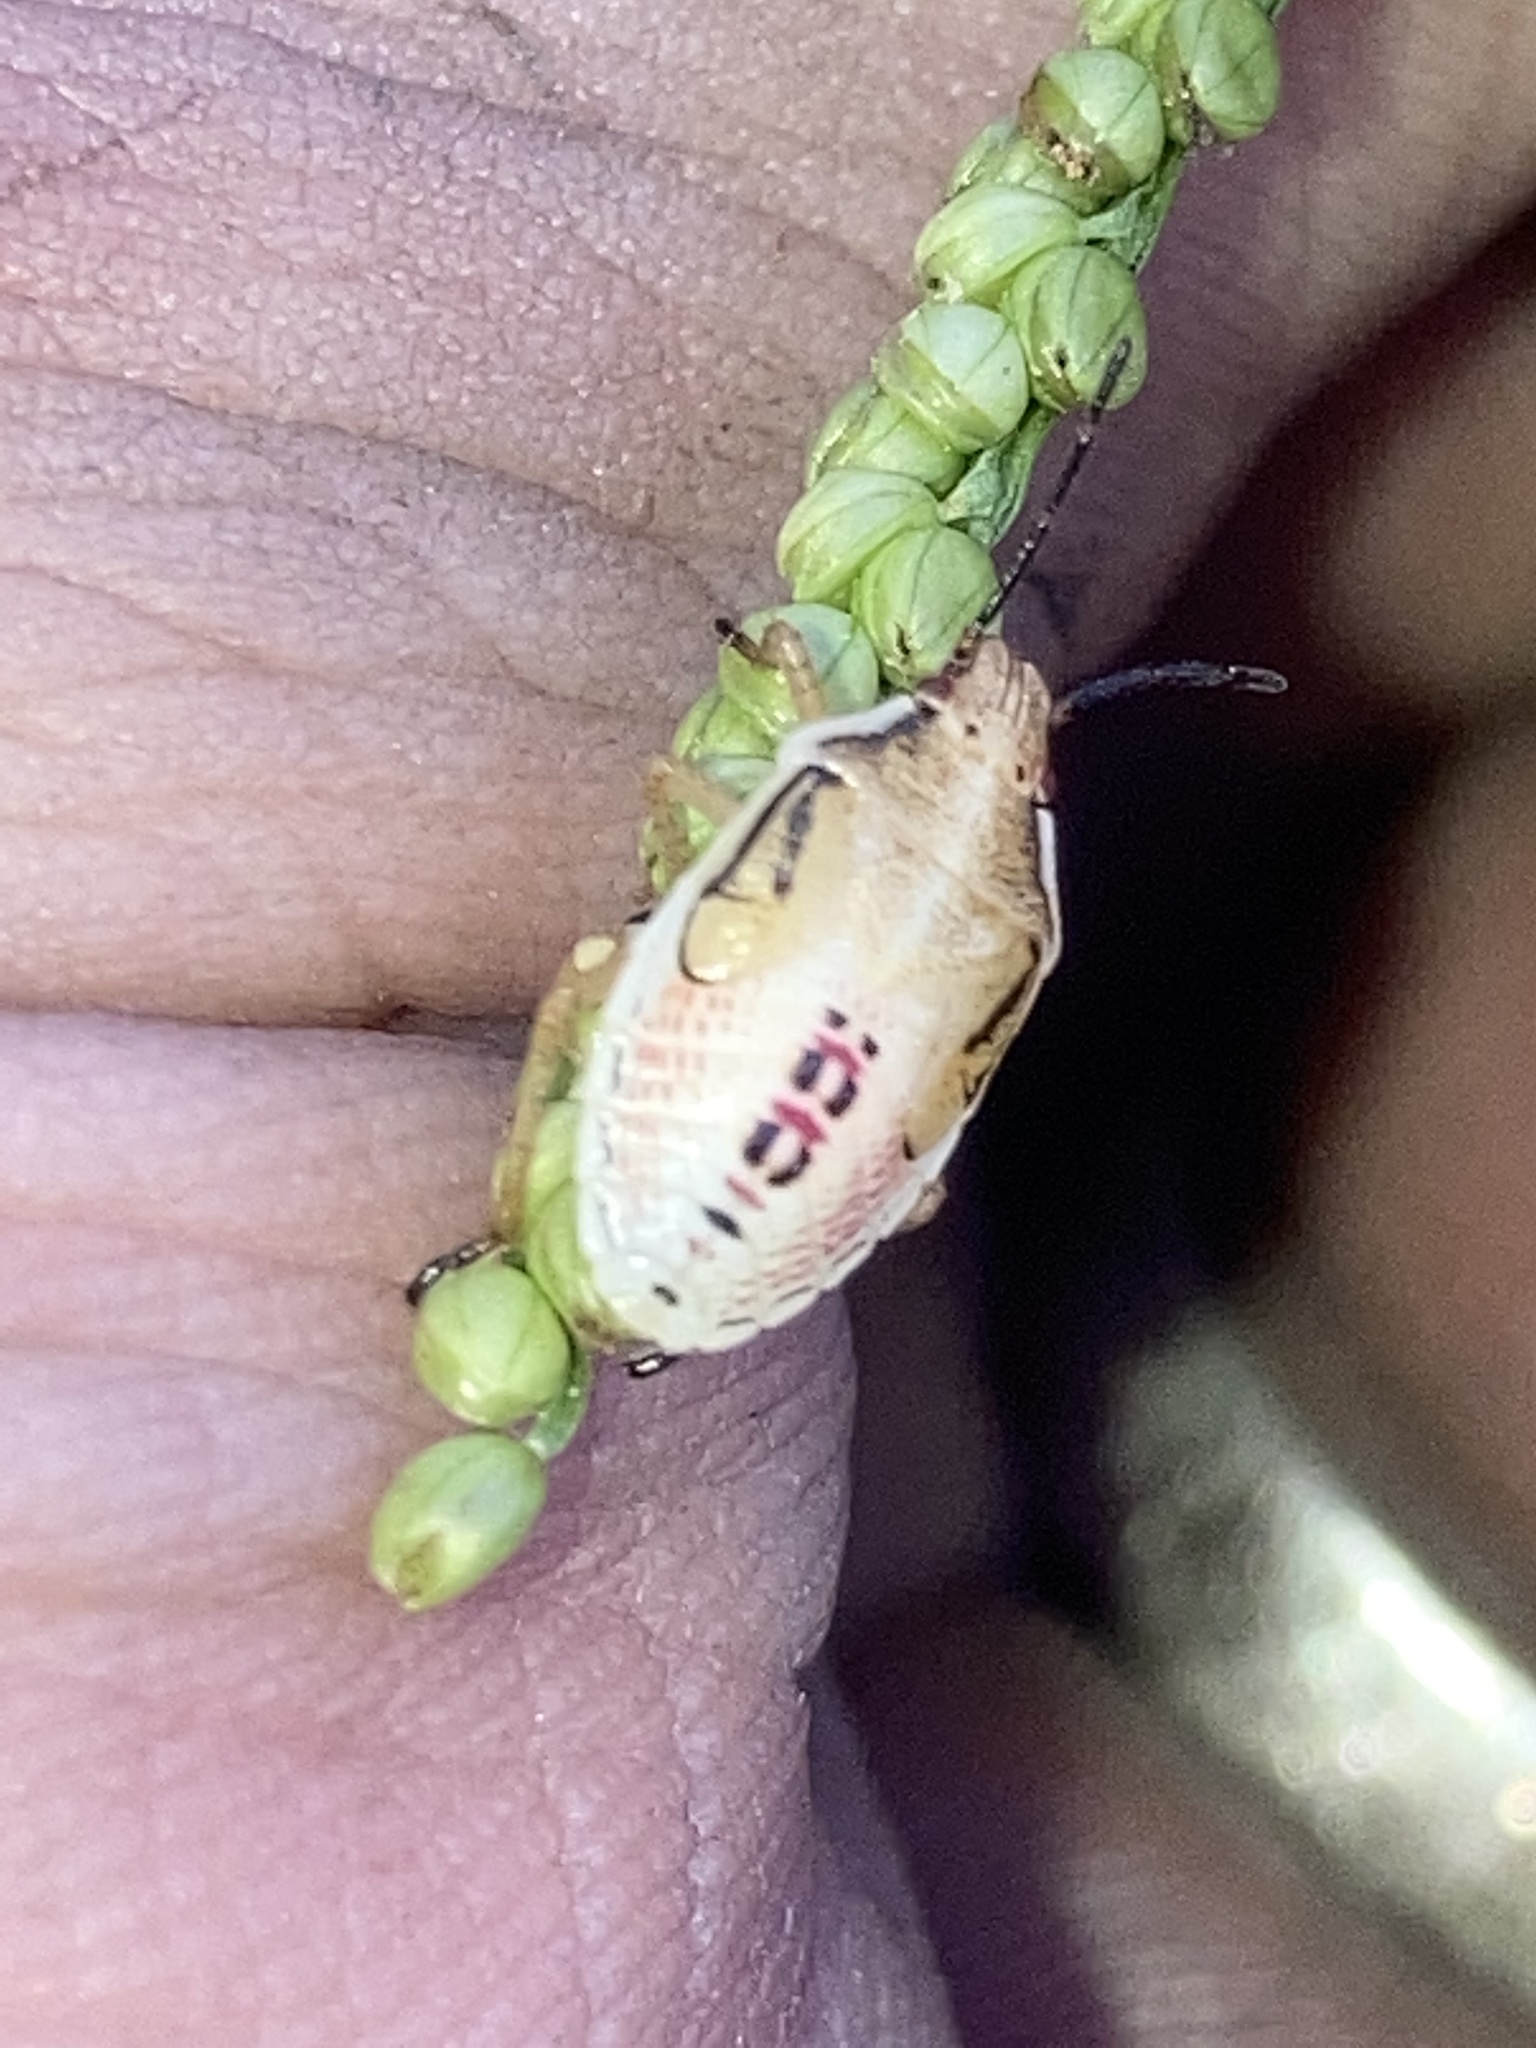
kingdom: Animalia
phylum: Arthropoda
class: Insecta
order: Hemiptera
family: Pentatomidae
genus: Oebalus
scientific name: Oebalus pugnax
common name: Rice stink bug
